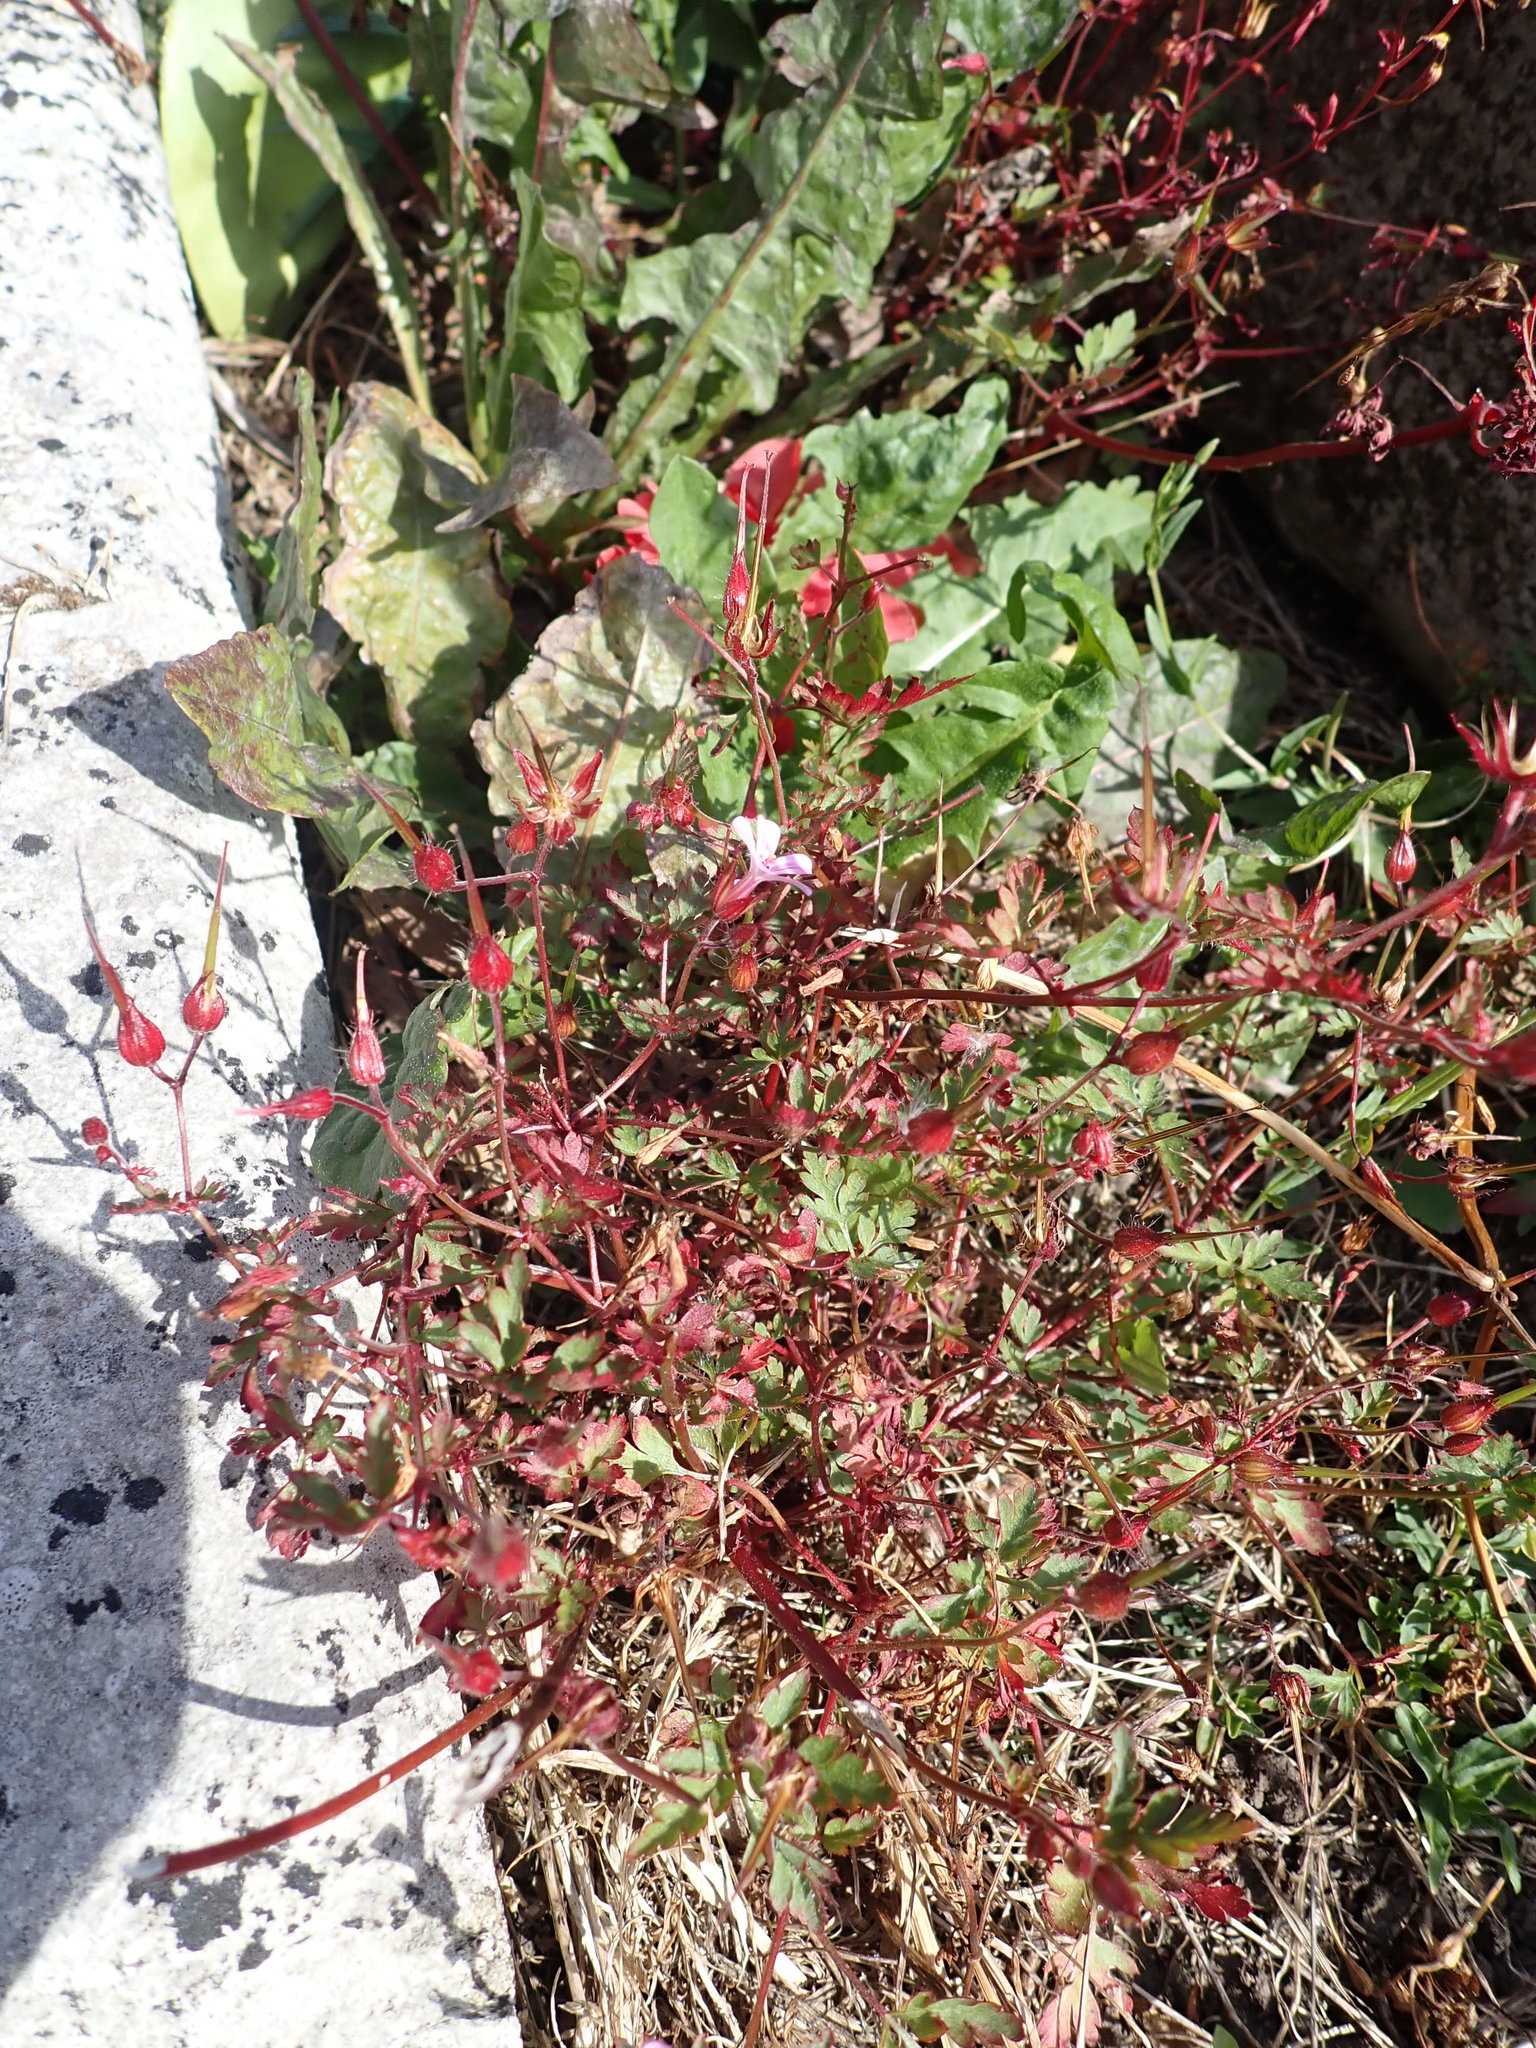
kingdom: Plantae
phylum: Tracheophyta
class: Magnoliopsida
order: Geraniales
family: Geraniaceae
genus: Geranium
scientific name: Geranium robertianum
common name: Herb-robert
